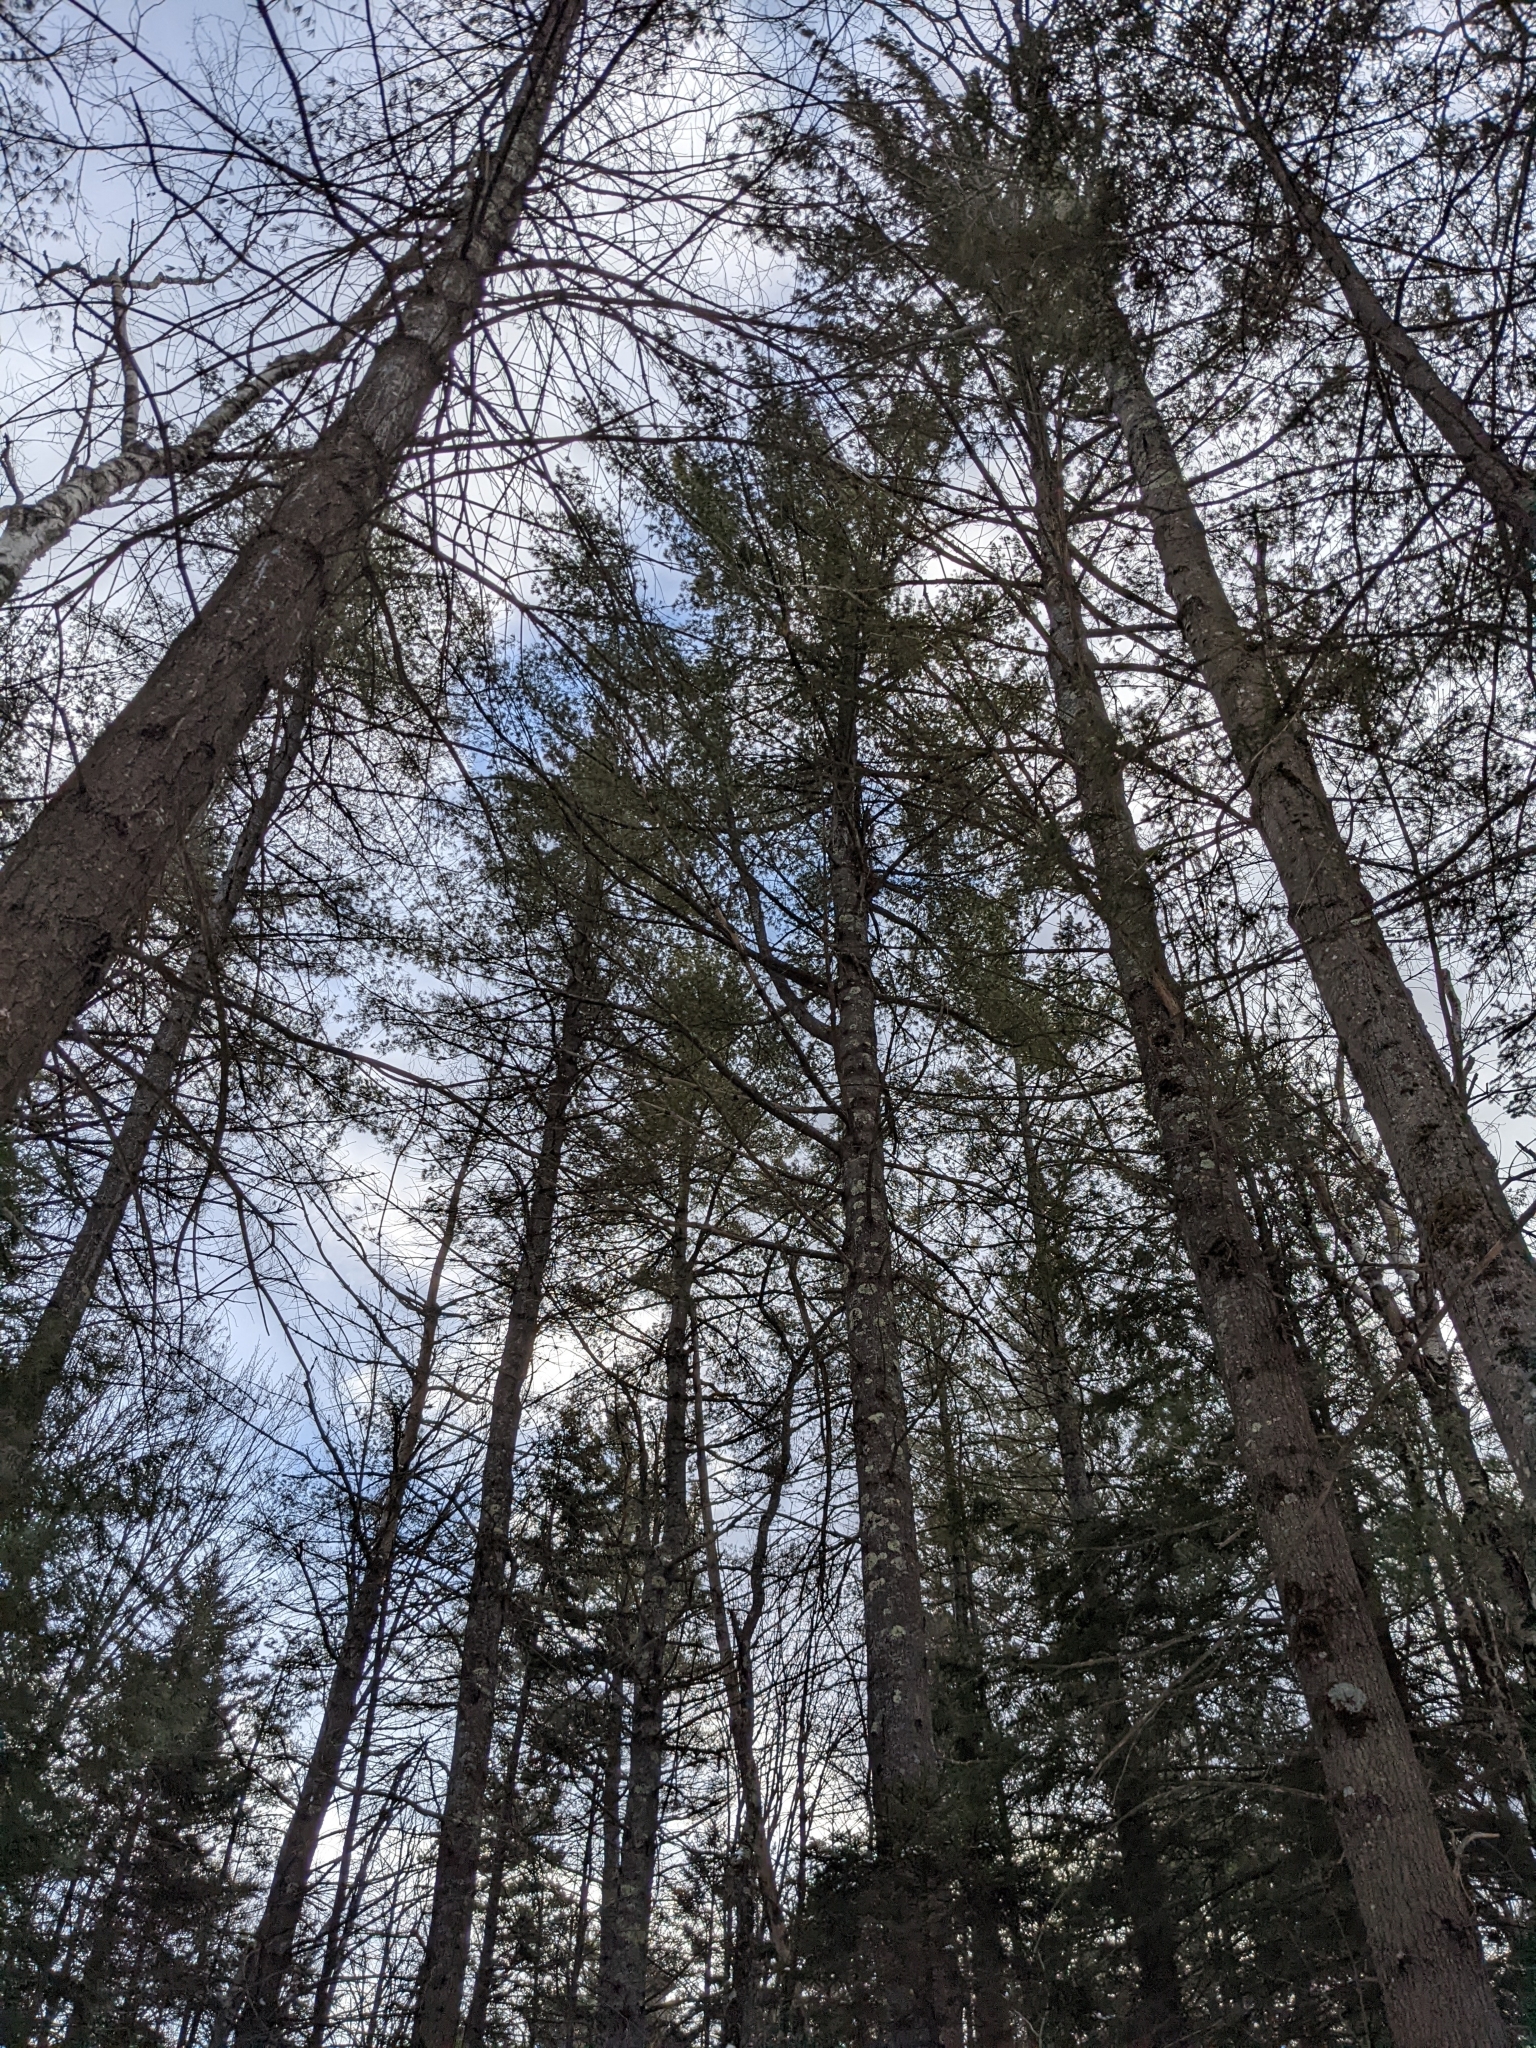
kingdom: Plantae
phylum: Tracheophyta
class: Pinopsida
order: Pinales
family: Pinaceae
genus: Pinus
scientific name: Pinus strobus
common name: Weymouth pine
